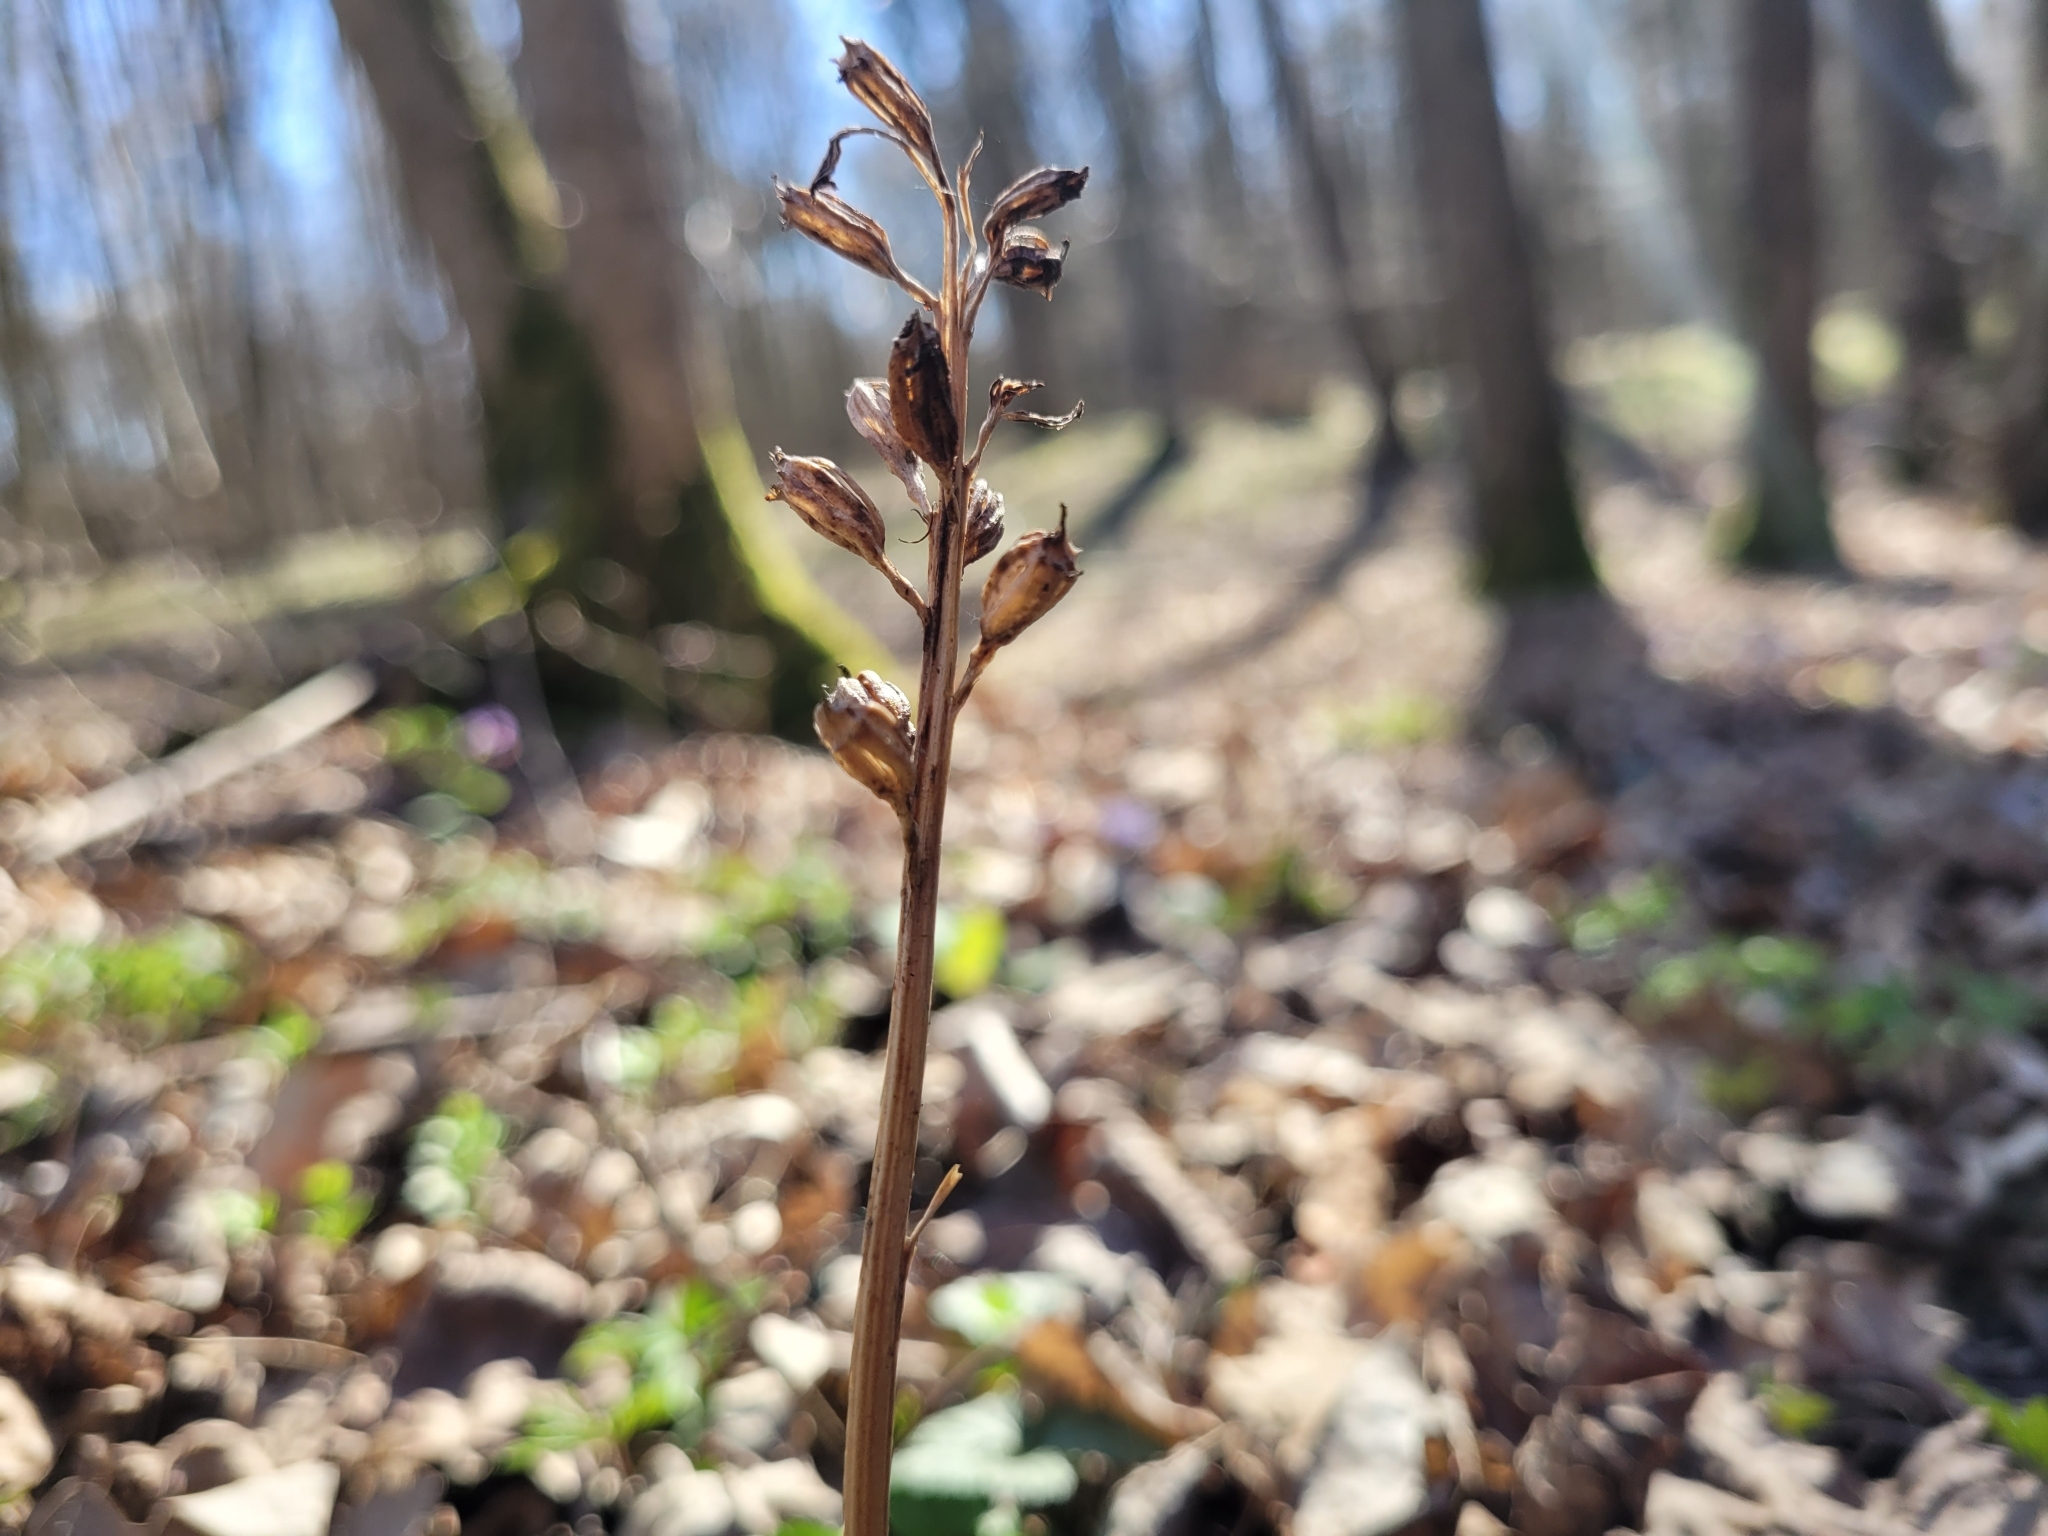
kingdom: Plantae
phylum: Tracheophyta
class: Liliopsida
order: Asparagales
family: Orchidaceae
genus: Neottia
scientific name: Neottia nidus-avis
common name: Bird's-nest orchid
